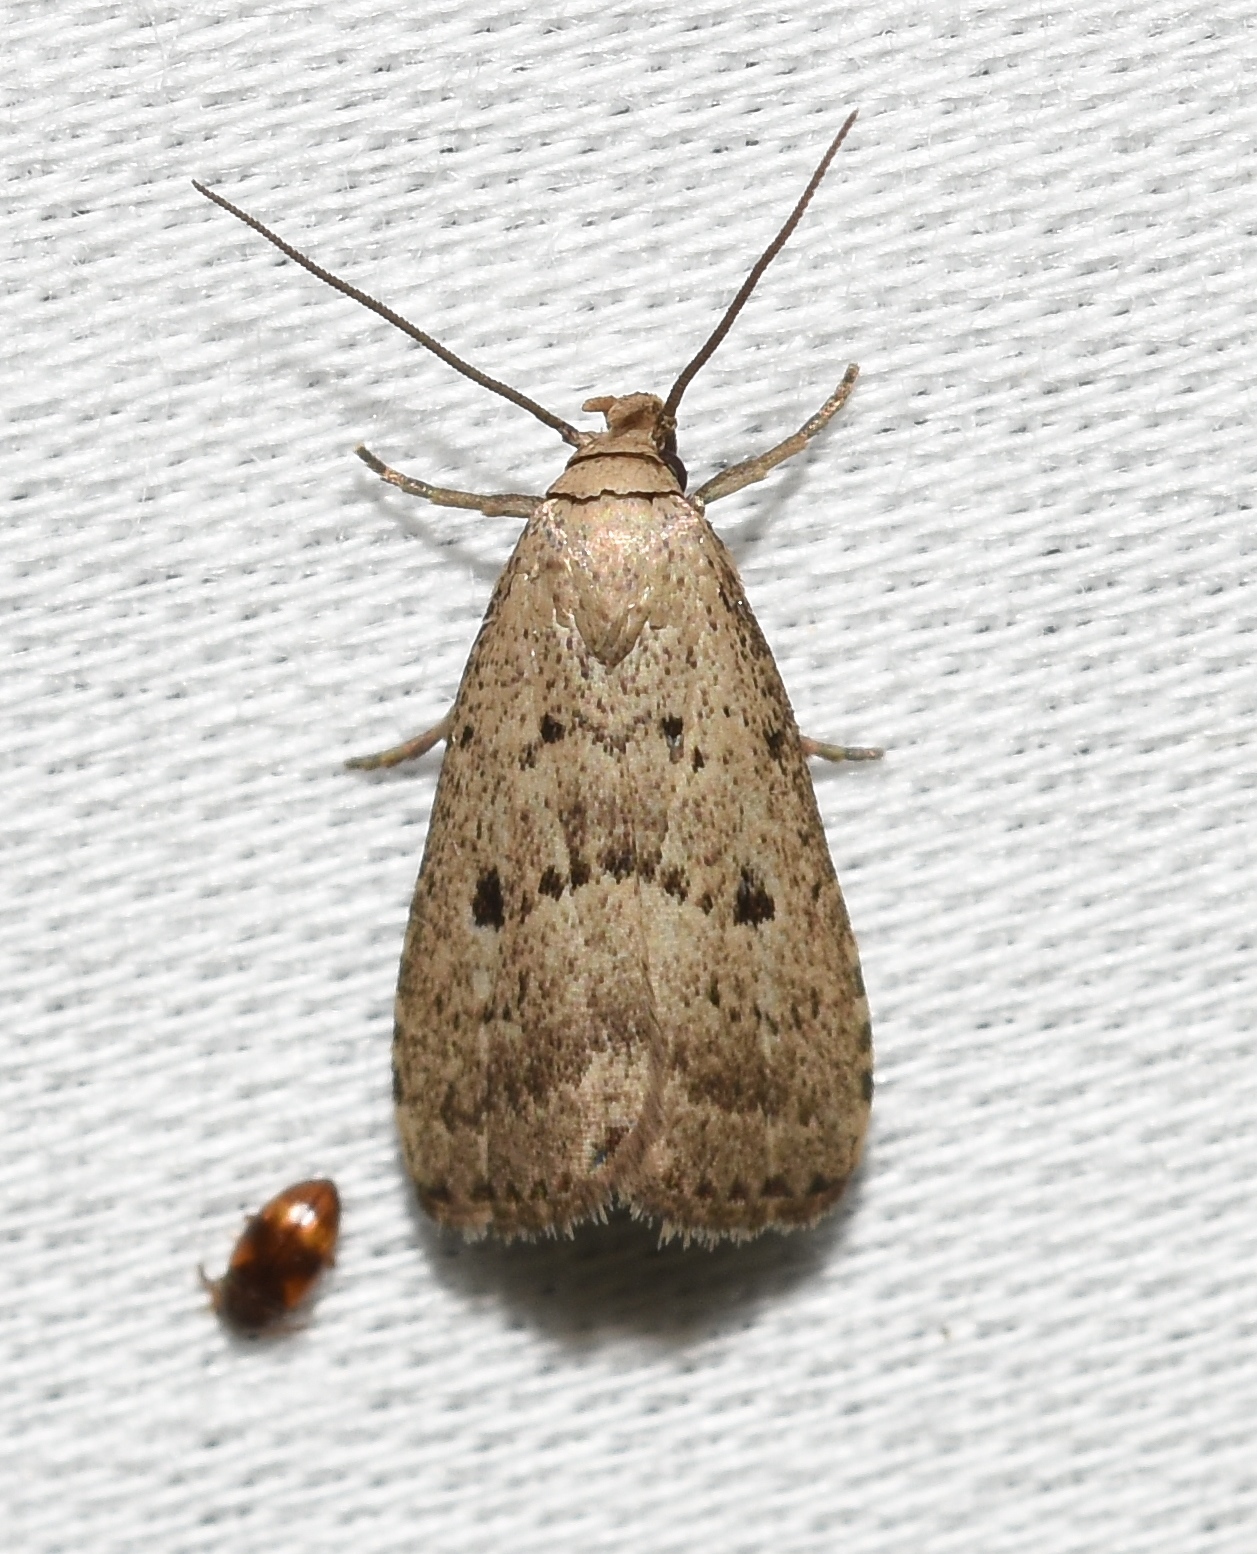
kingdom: Animalia
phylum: Arthropoda
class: Insecta
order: Lepidoptera
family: Erebidae
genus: Hypenodes
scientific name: Hypenodes fractilinea
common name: Broken-line hypenodes moth
